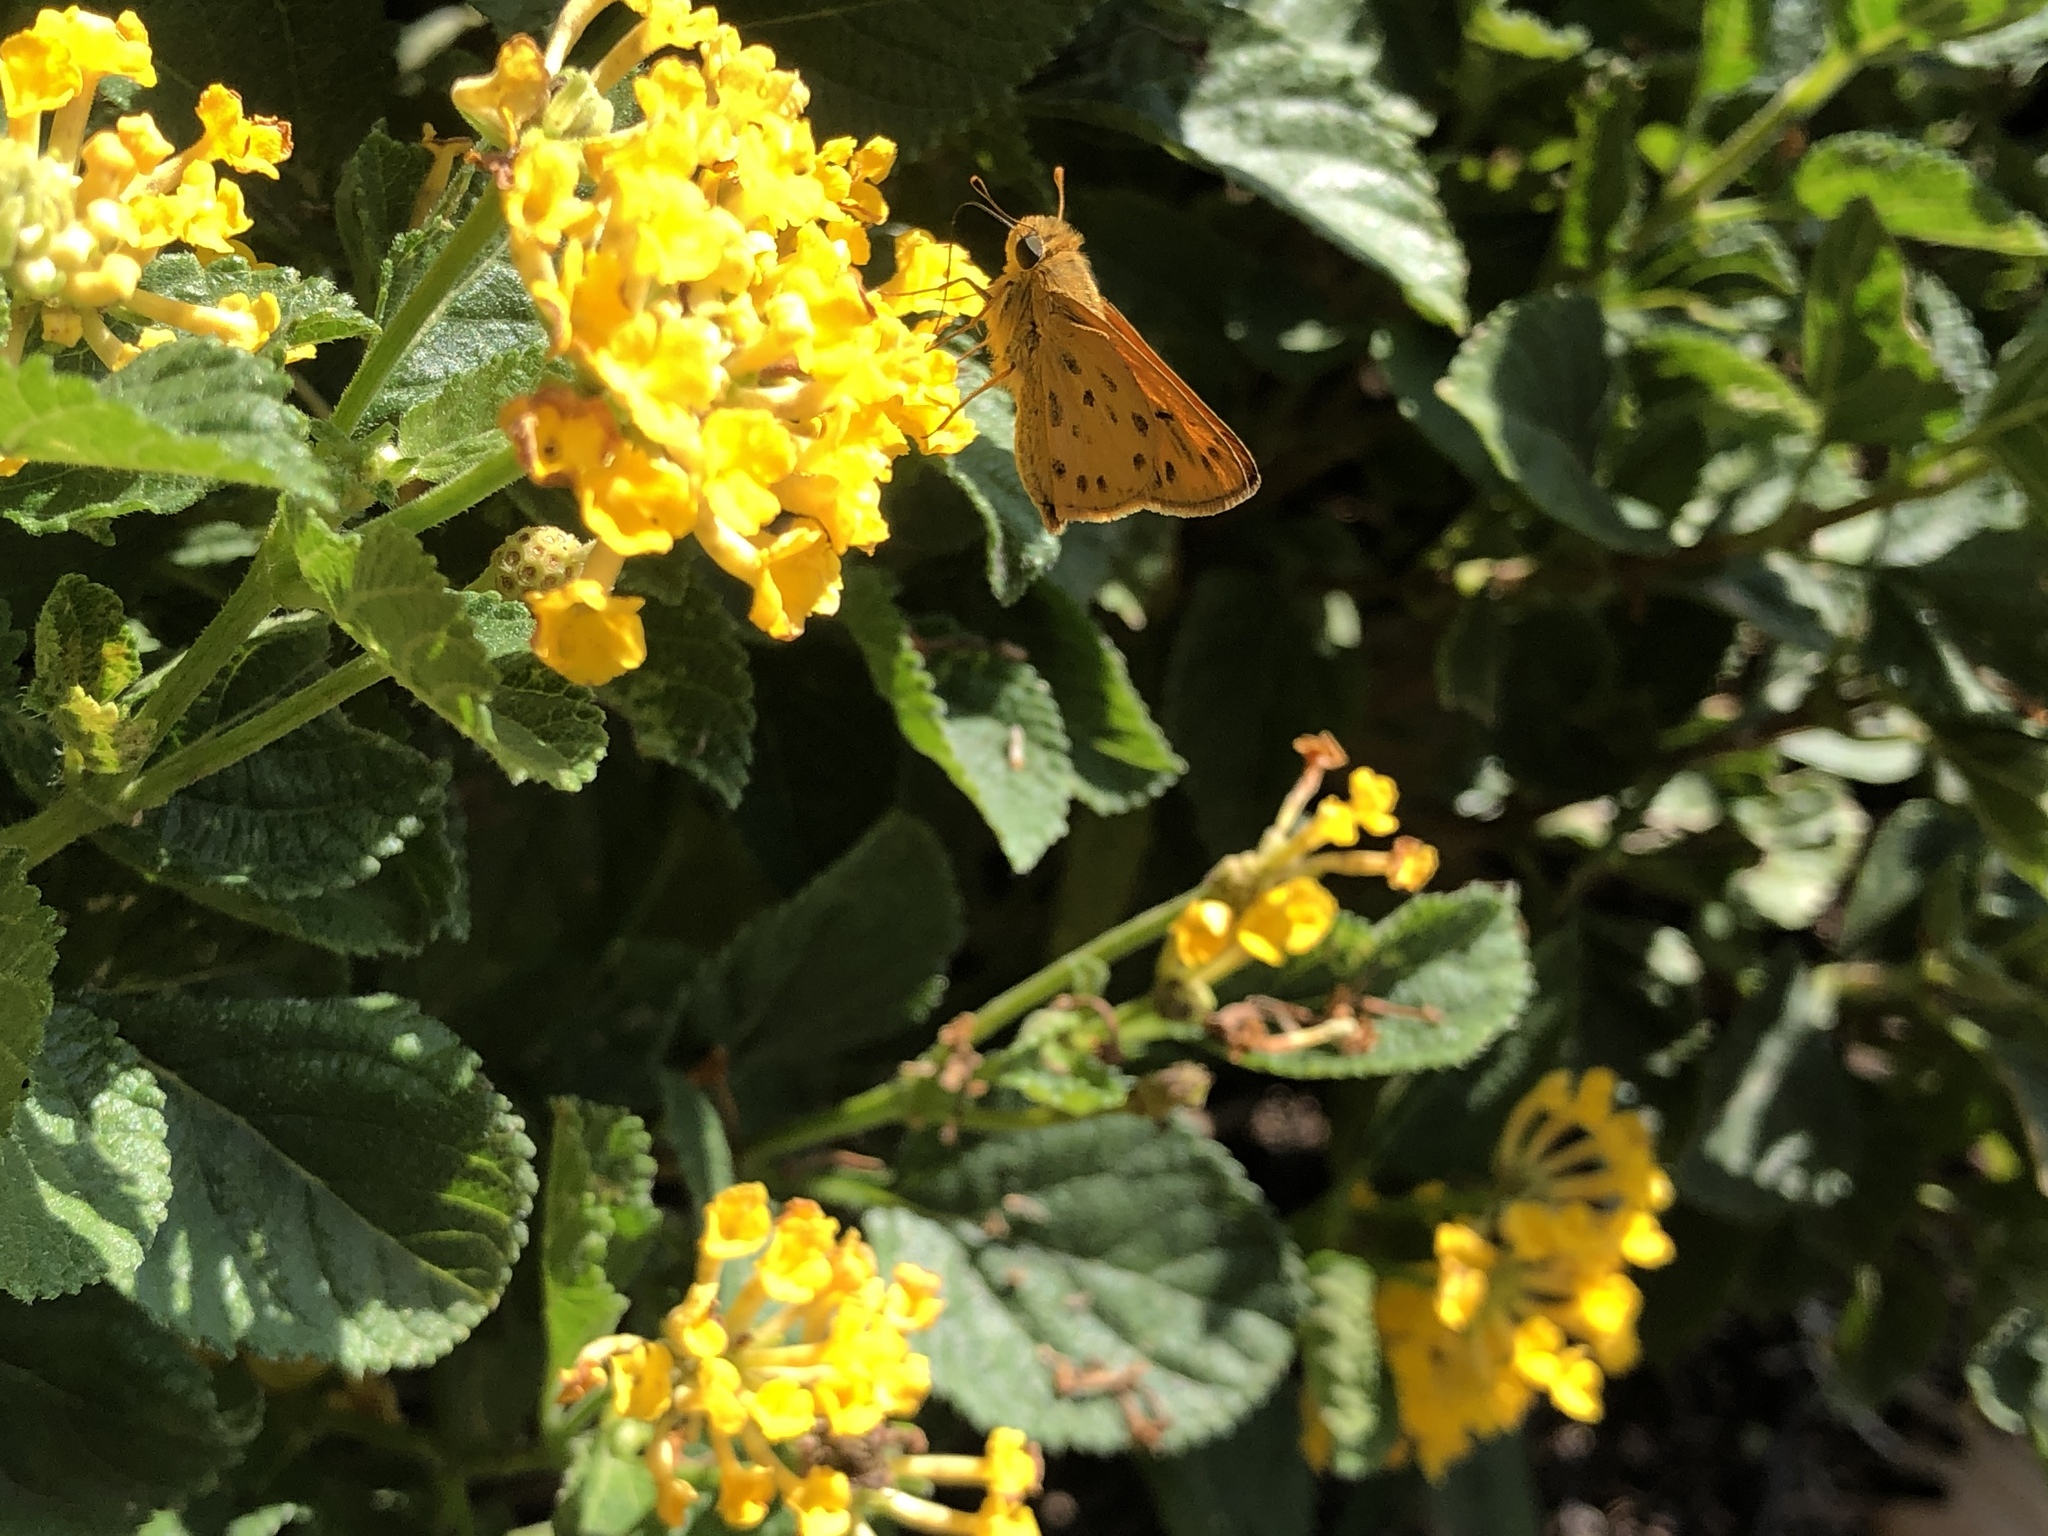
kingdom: Animalia
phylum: Arthropoda
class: Insecta
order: Lepidoptera
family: Hesperiidae
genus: Hylephila
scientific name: Hylephila phyleus
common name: Fiery skipper
